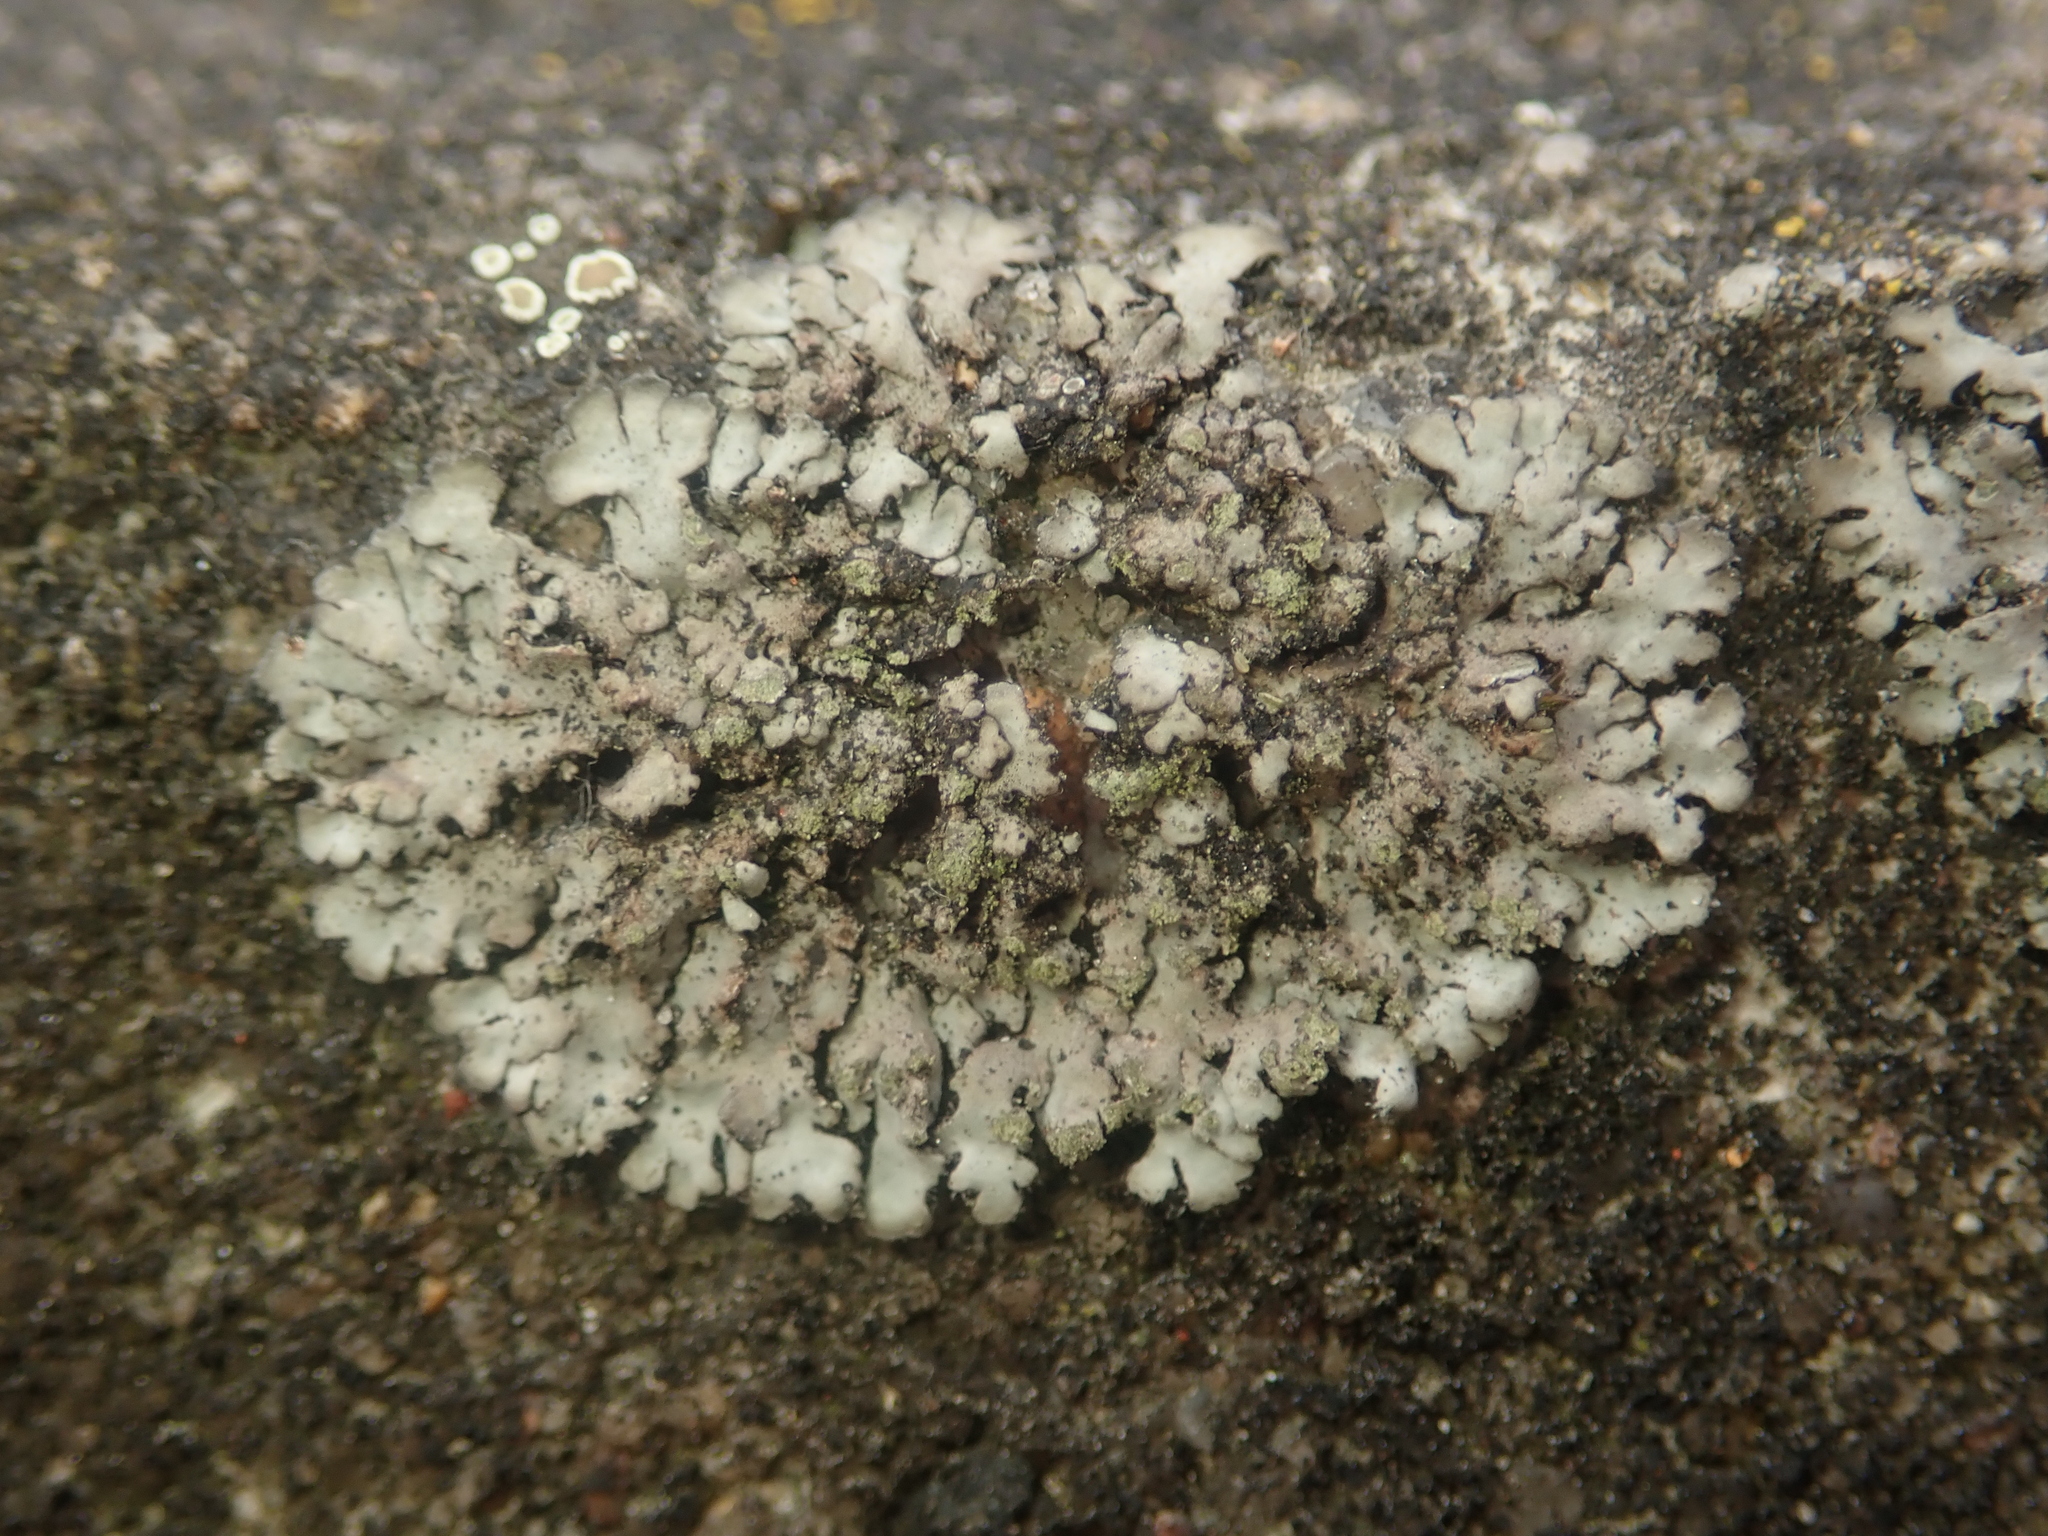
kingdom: Fungi
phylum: Ascomycota
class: Lecanoromycetes
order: Caliciales
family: Physciaceae
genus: Phaeophyscia
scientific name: Phaeophyscia orbicularis
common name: Mealy shadow lichen
